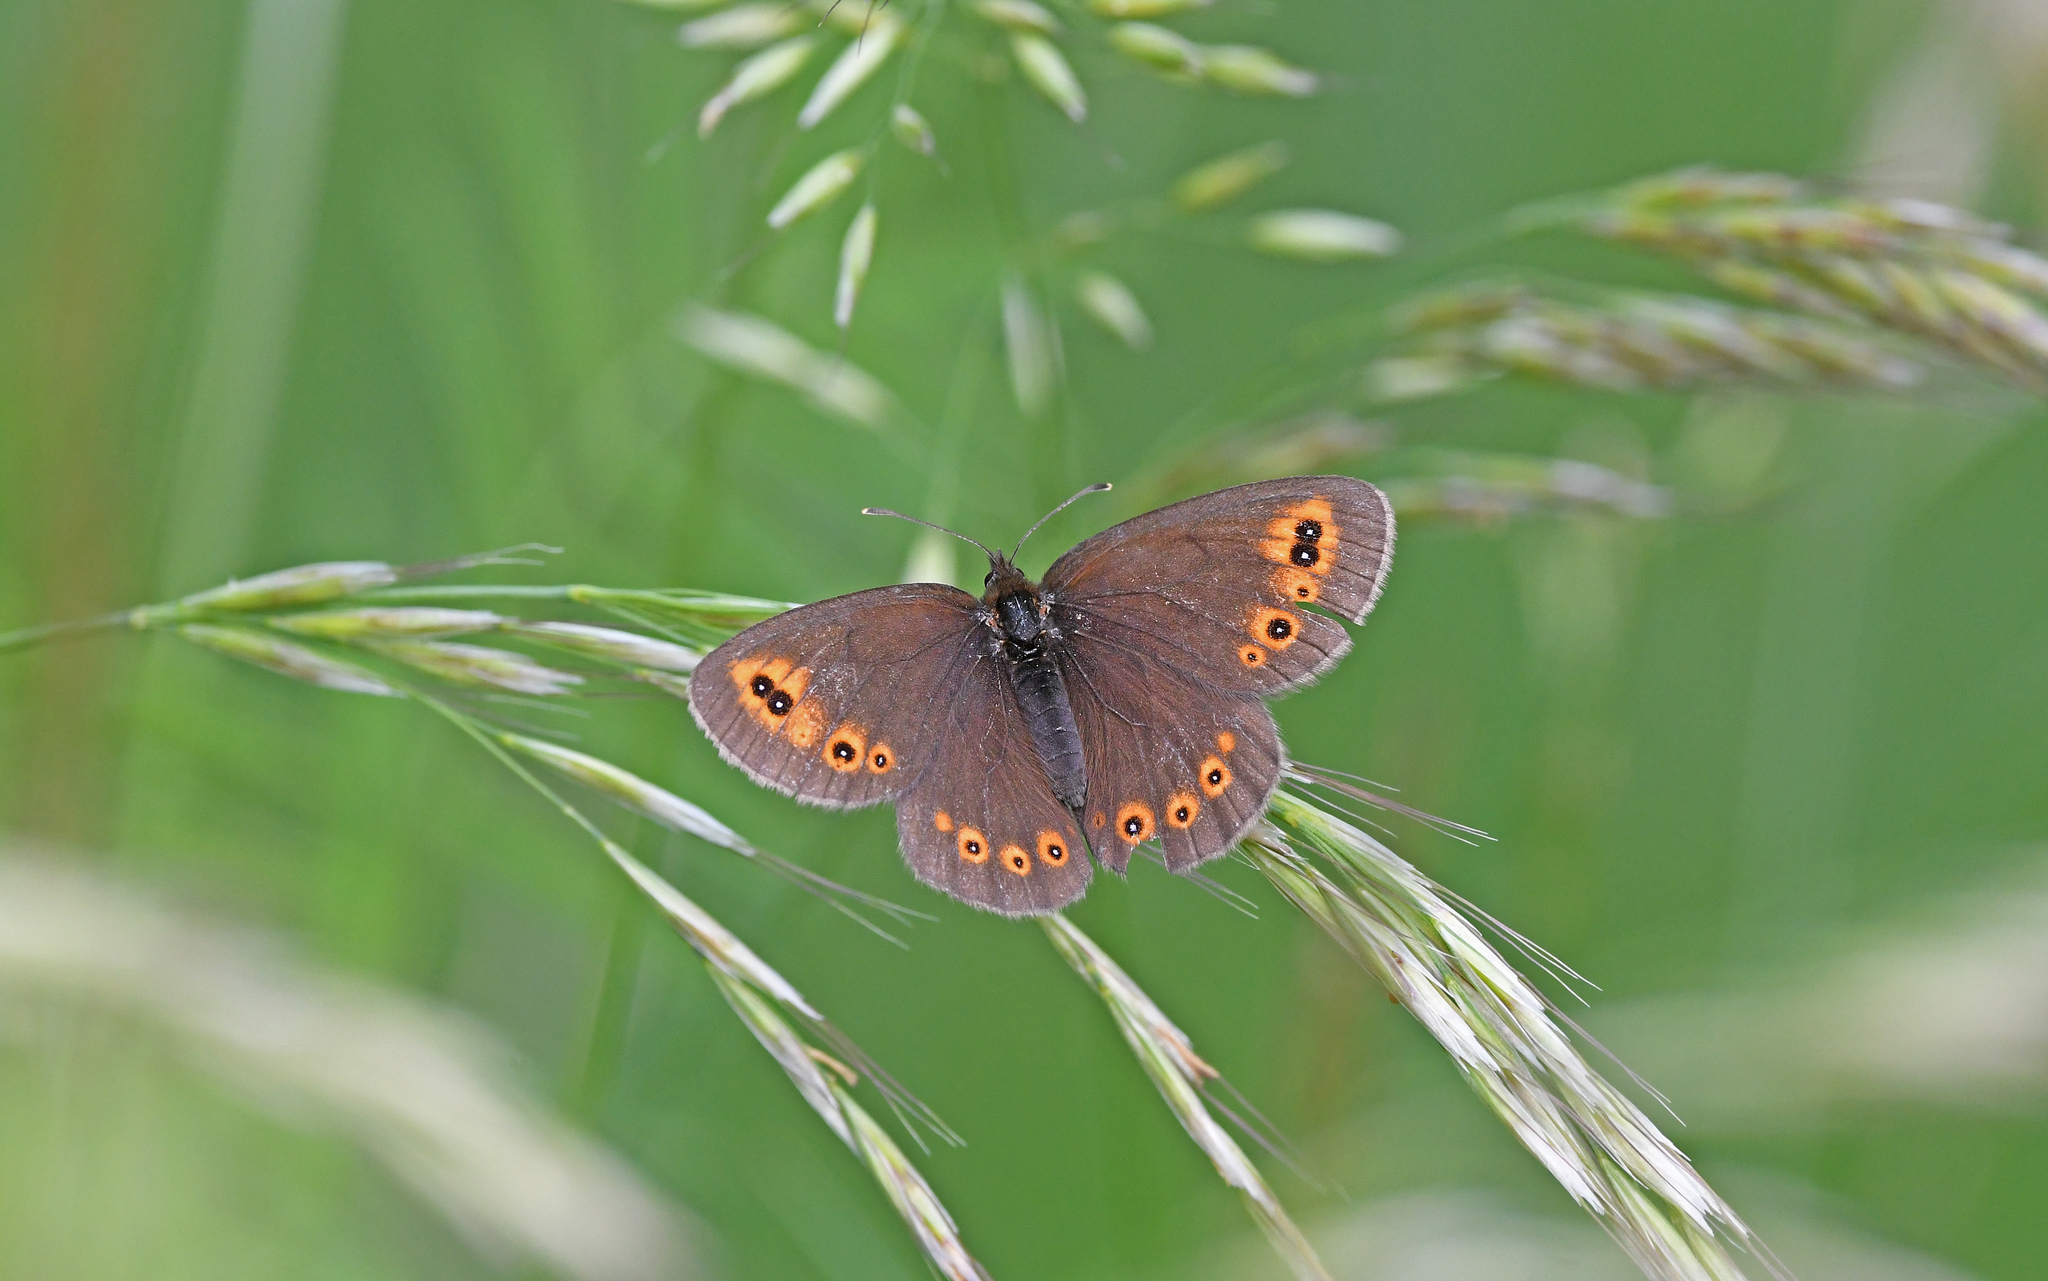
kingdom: Animalia
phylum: Arthropoda
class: Insecta
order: Lepidoptera
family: Nymphalidae
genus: Erebia
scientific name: Erebia medusa
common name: Woodland ringlet
